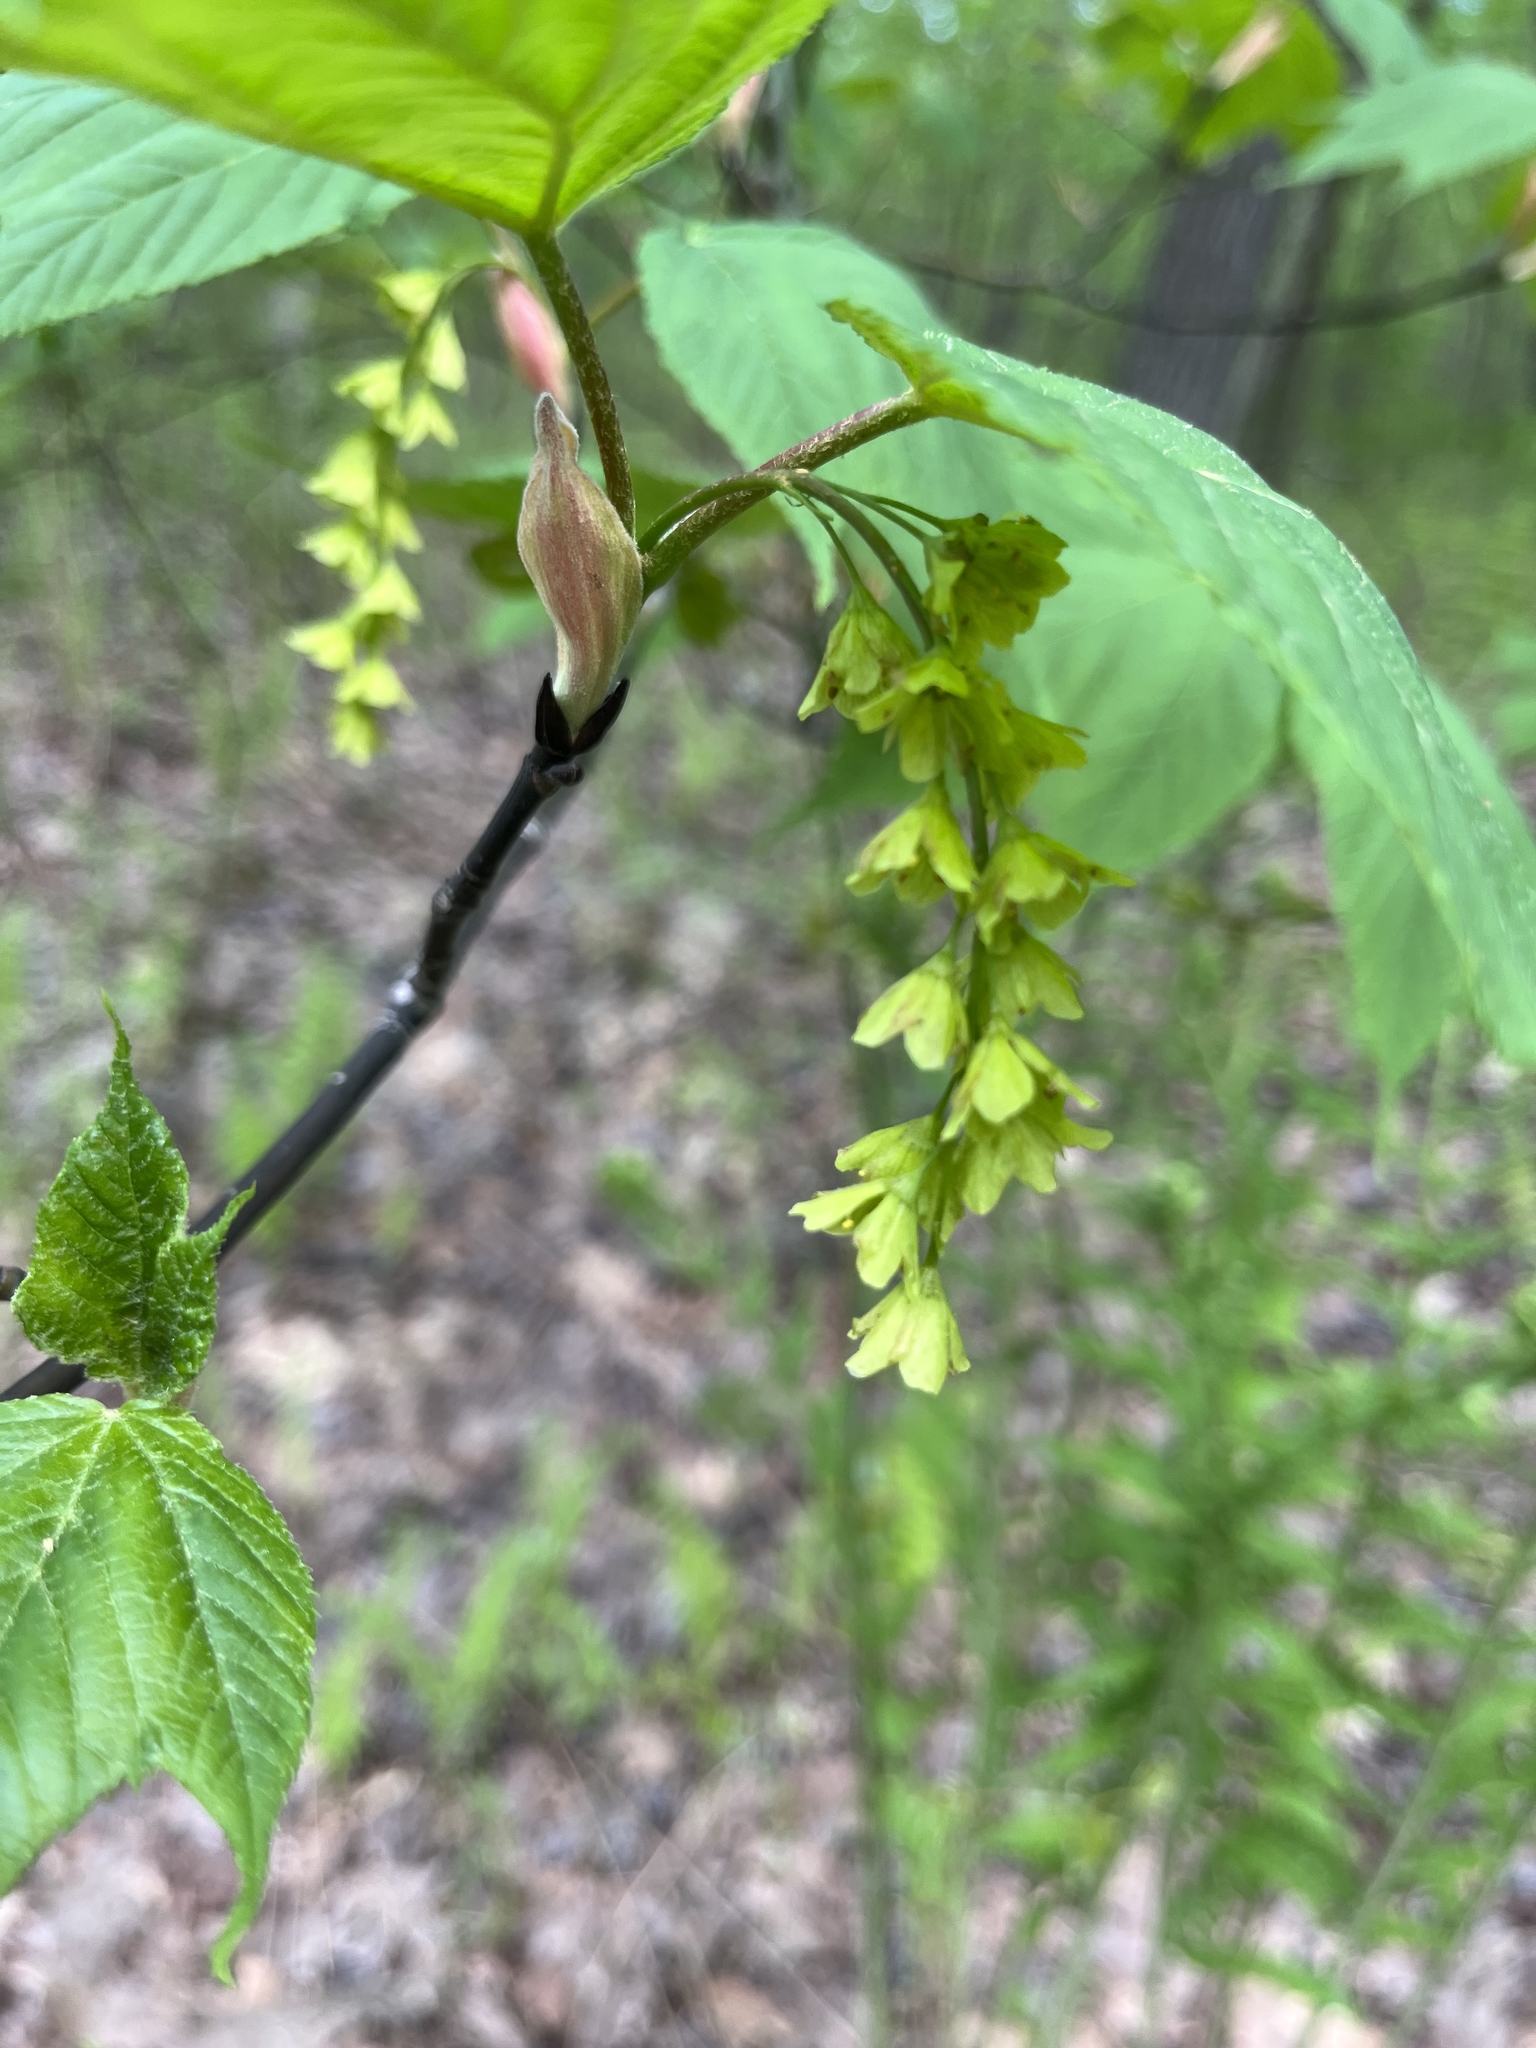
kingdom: Plantae
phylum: Tracheophyta
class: Magnoliopsida
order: Sapindales
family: Sapindaceae
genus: Acer
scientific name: Acer pensylvanicum
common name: Moosewood
